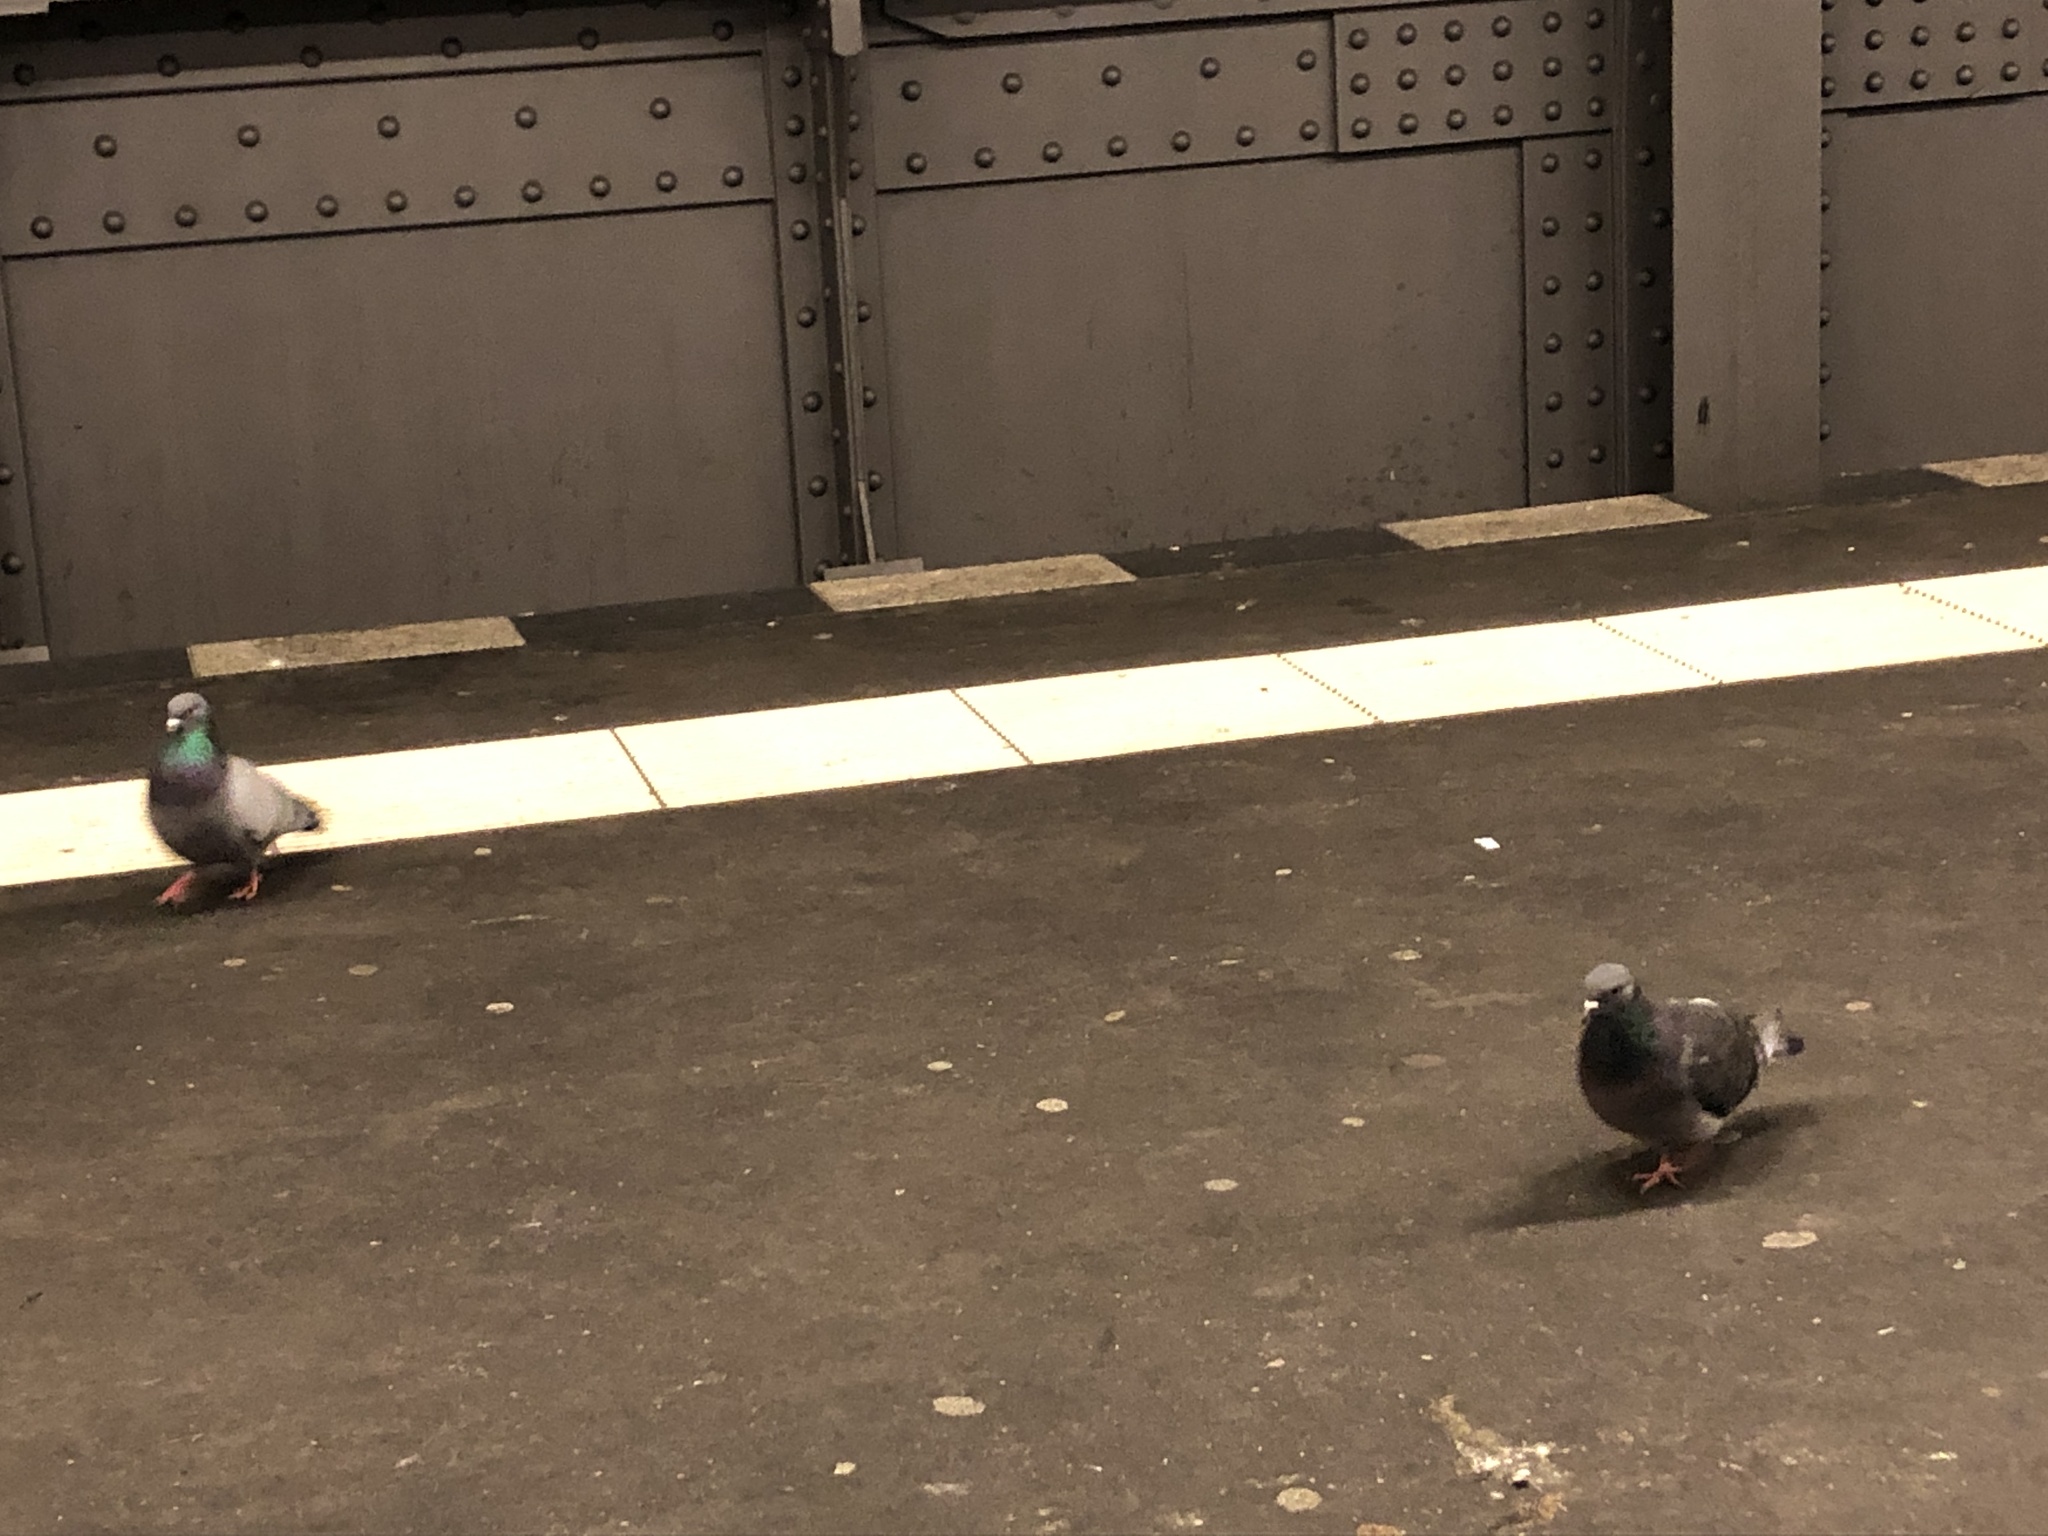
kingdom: Animalia
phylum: Chordata
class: Aves
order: Columbiformes
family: Columbidae
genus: Columba
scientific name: Columba livia
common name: Rock pigeon
